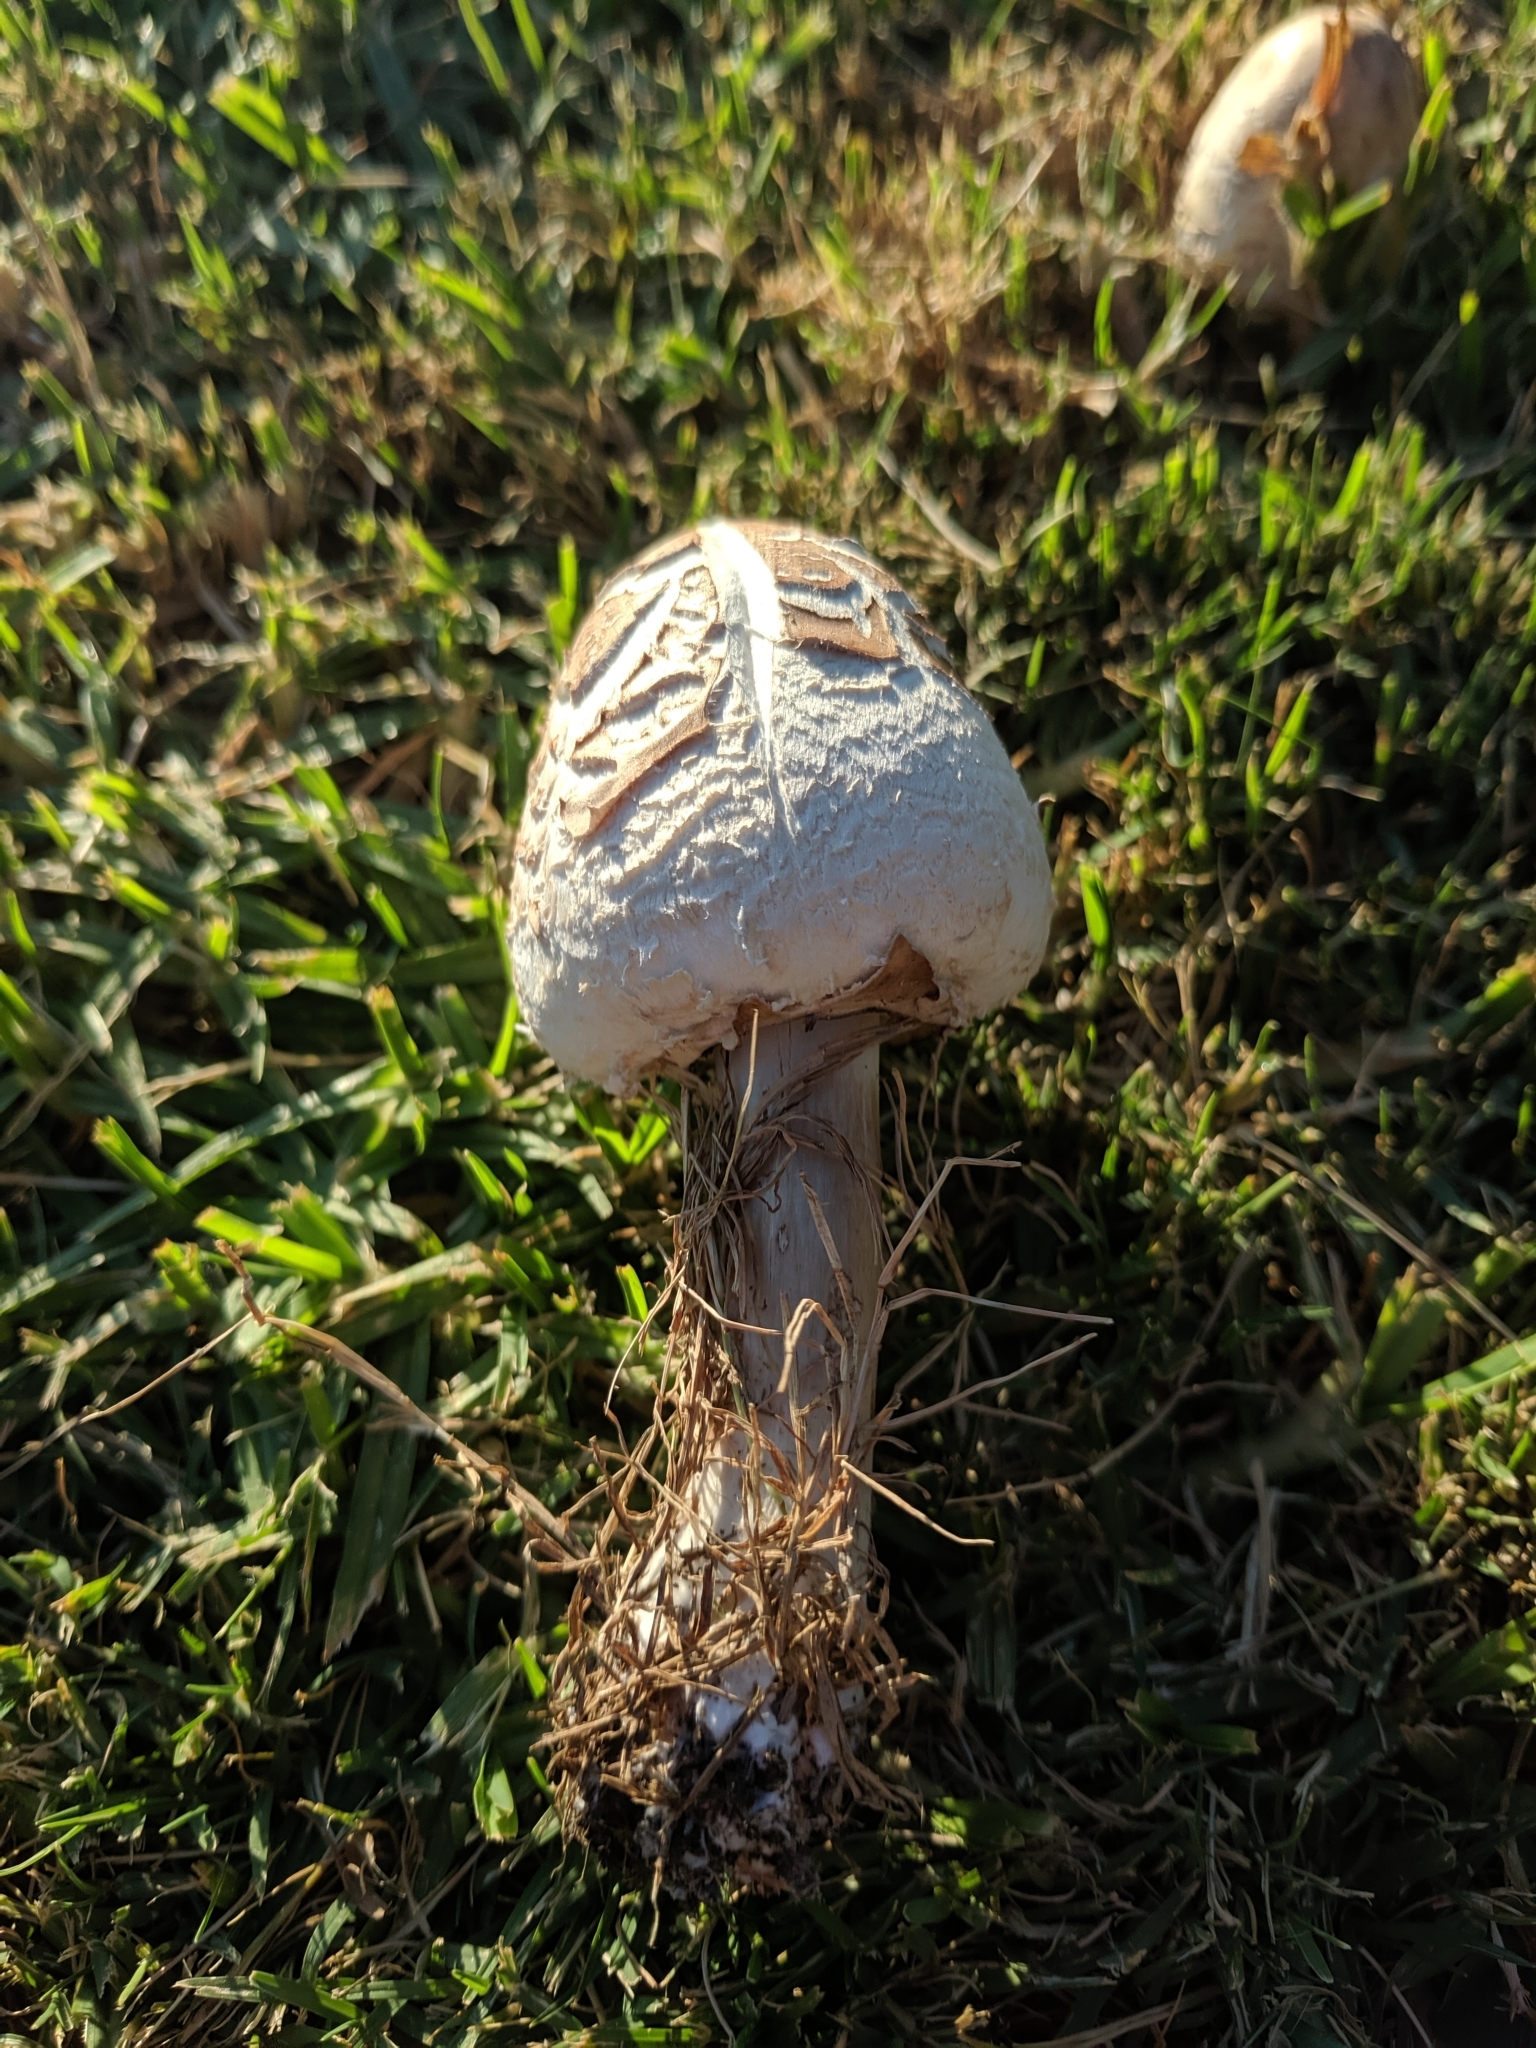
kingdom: Fungi
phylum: Basidiomycota
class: Agaricomycetes
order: Agaricales
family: Agaricaceae
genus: Chlorophyllum
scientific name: Chlorophyllum molybdites
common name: False parasol
